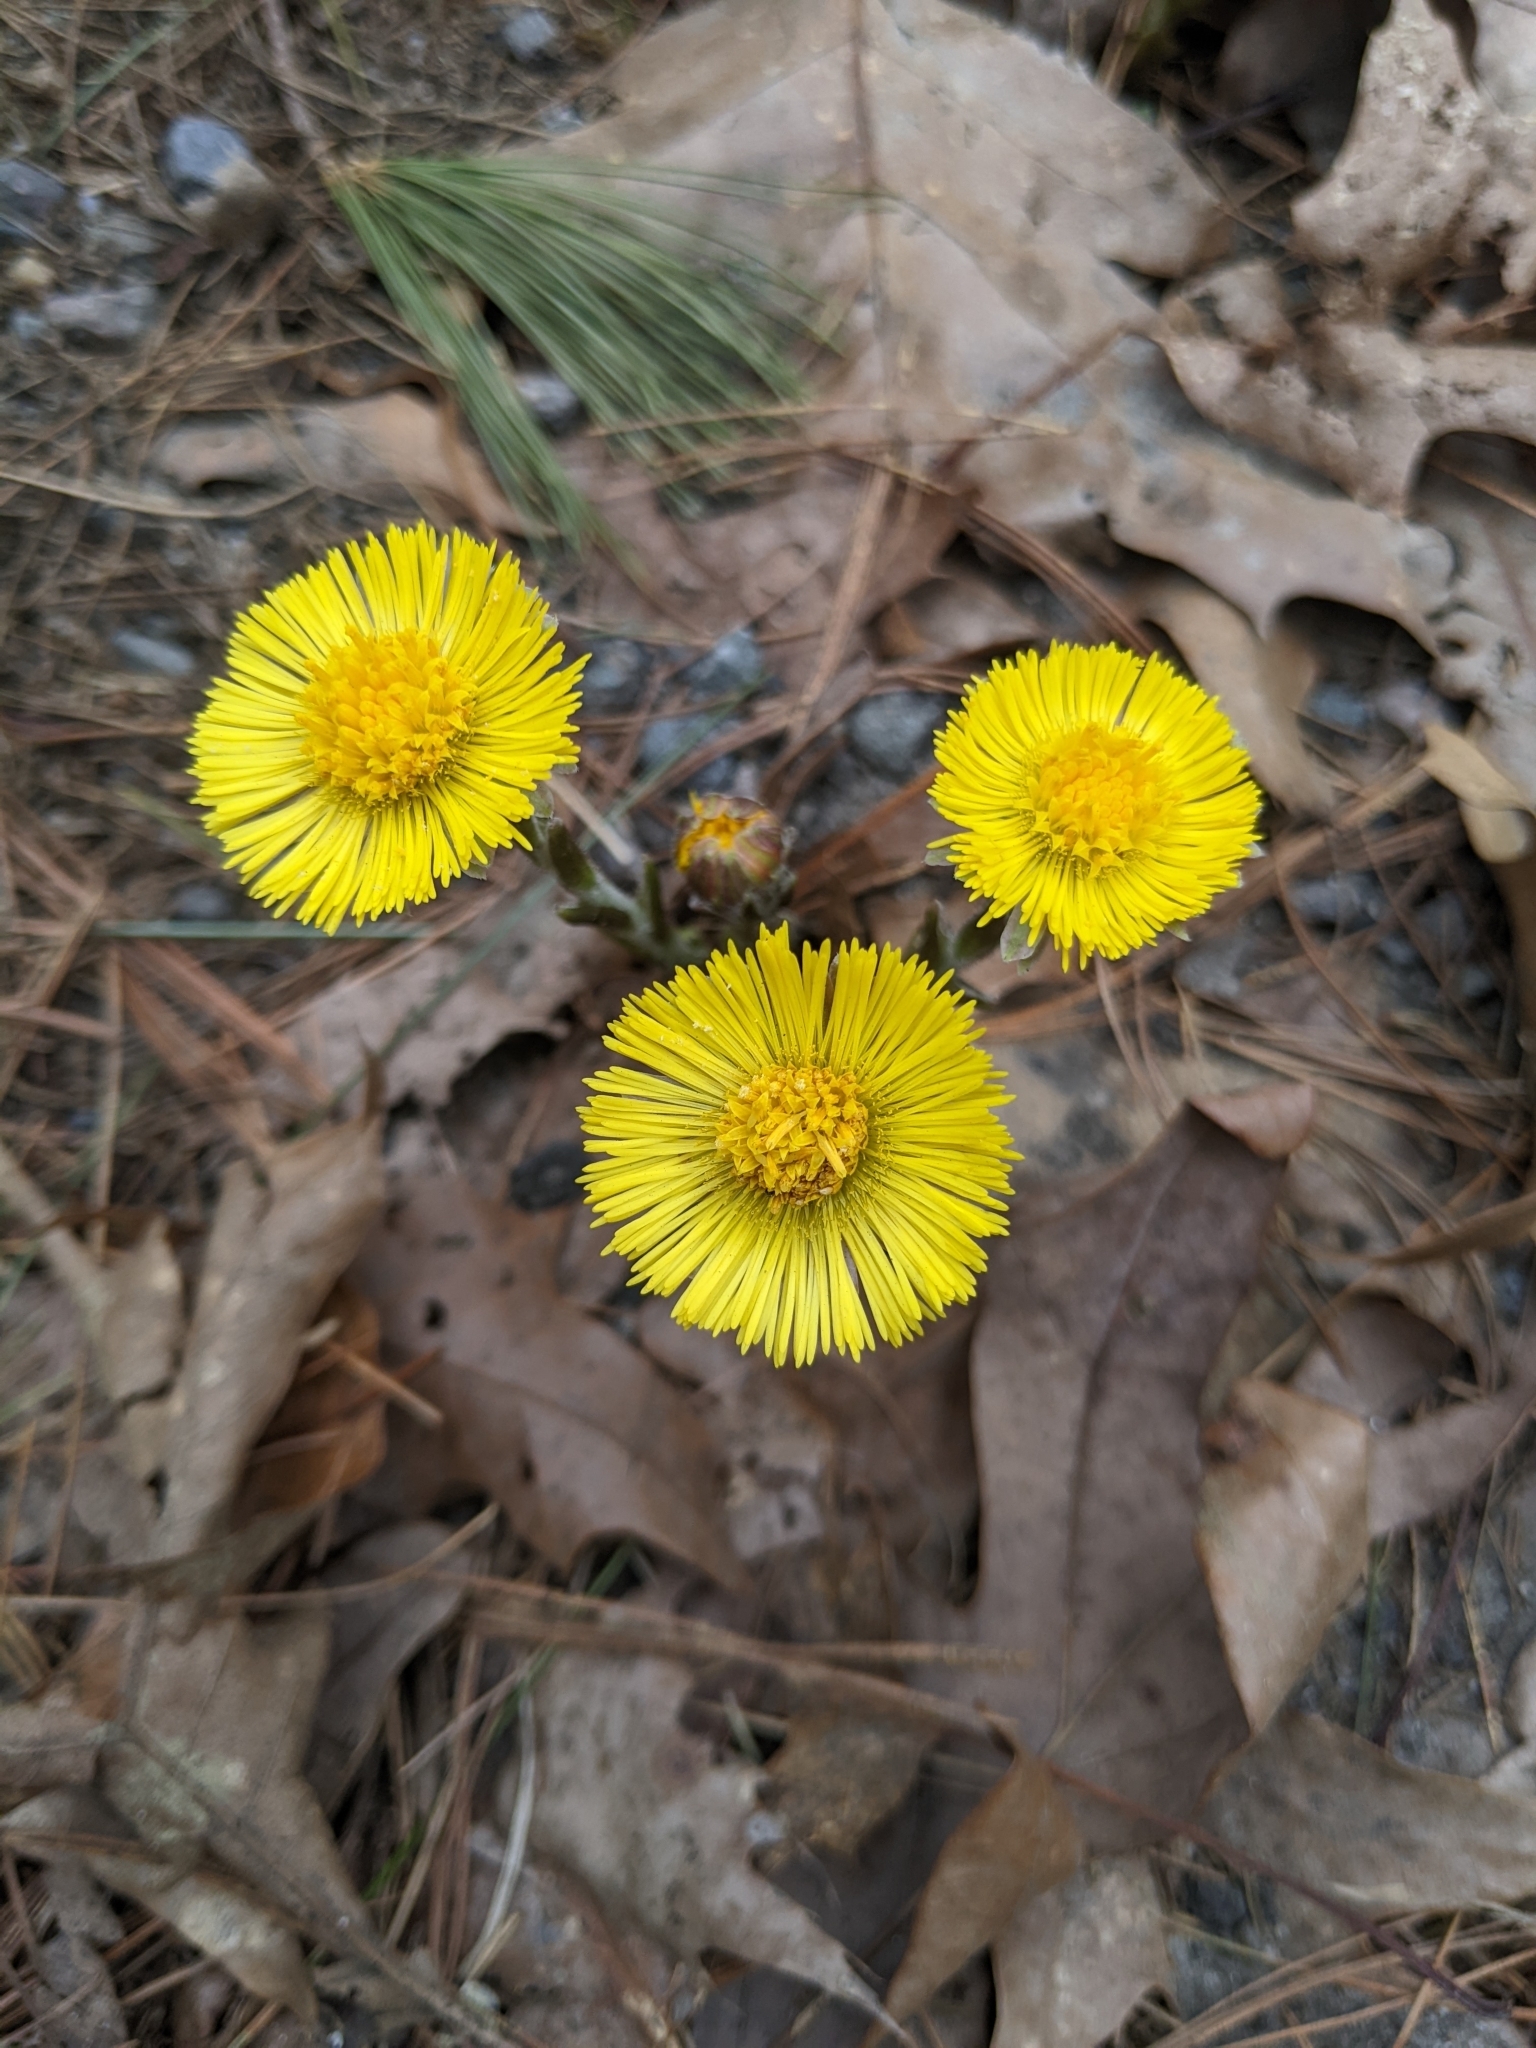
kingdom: Plantae
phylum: Tracheophyta
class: Magnoliopsida
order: Asterales
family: Asteraceae
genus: Tussilago
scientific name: Tussilago farfara
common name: Coltsfoot
